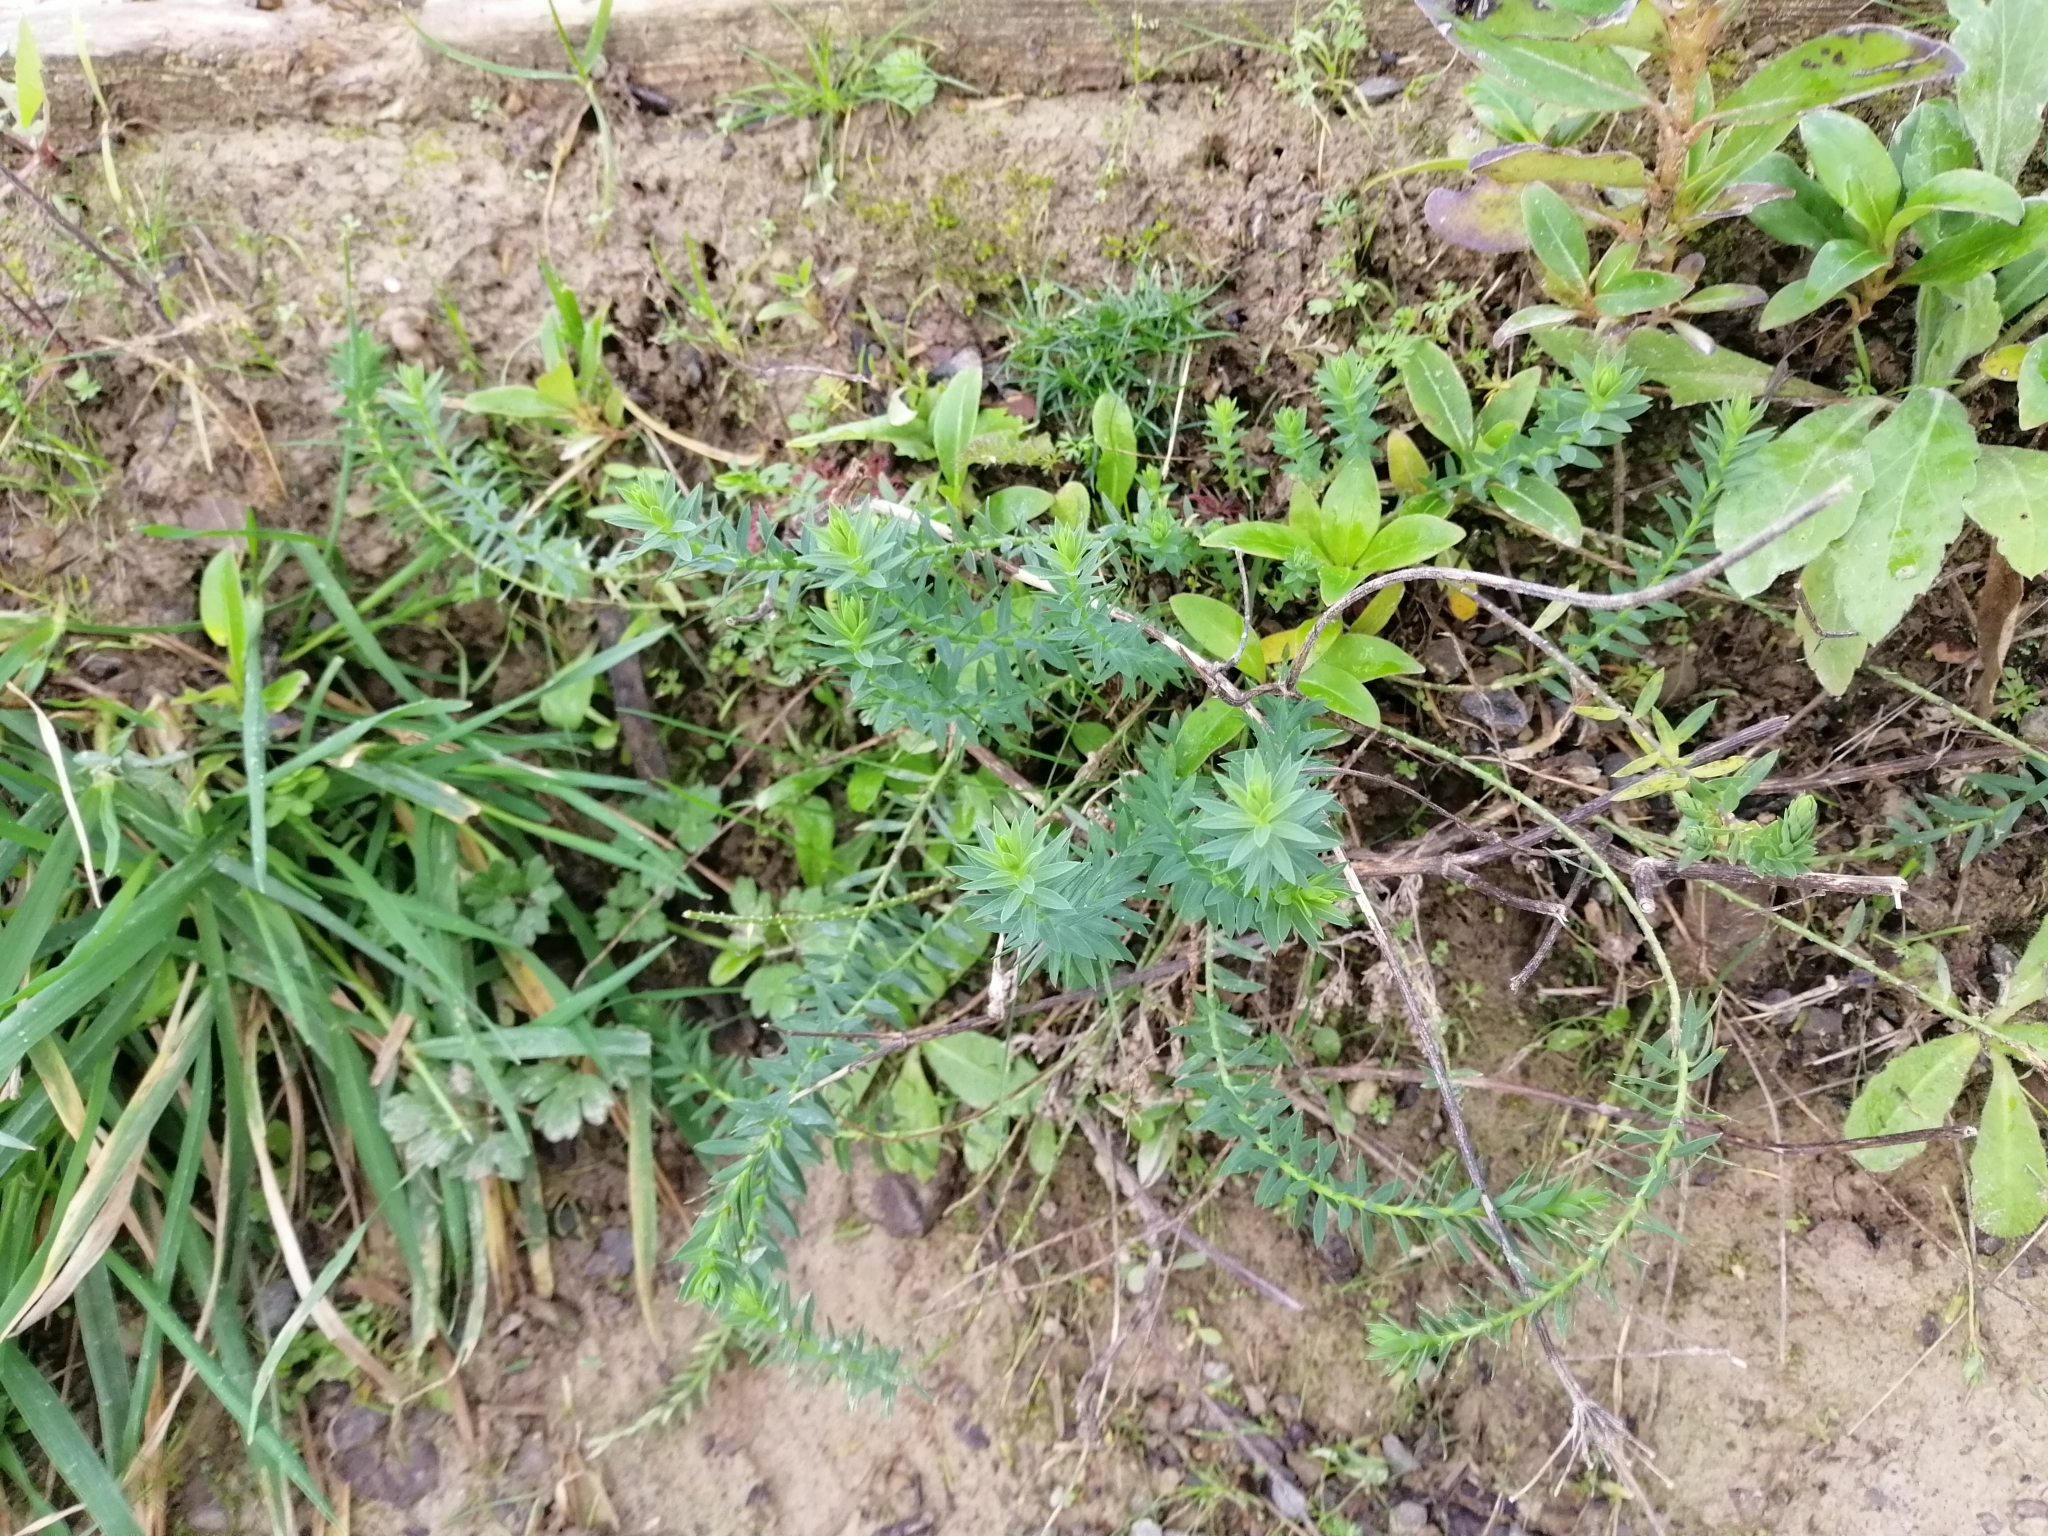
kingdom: Plantae
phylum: Tracheophyta
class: Magnoliopsida
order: Malpighiales
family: Linaceae
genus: Linum
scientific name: Linum monogynum
